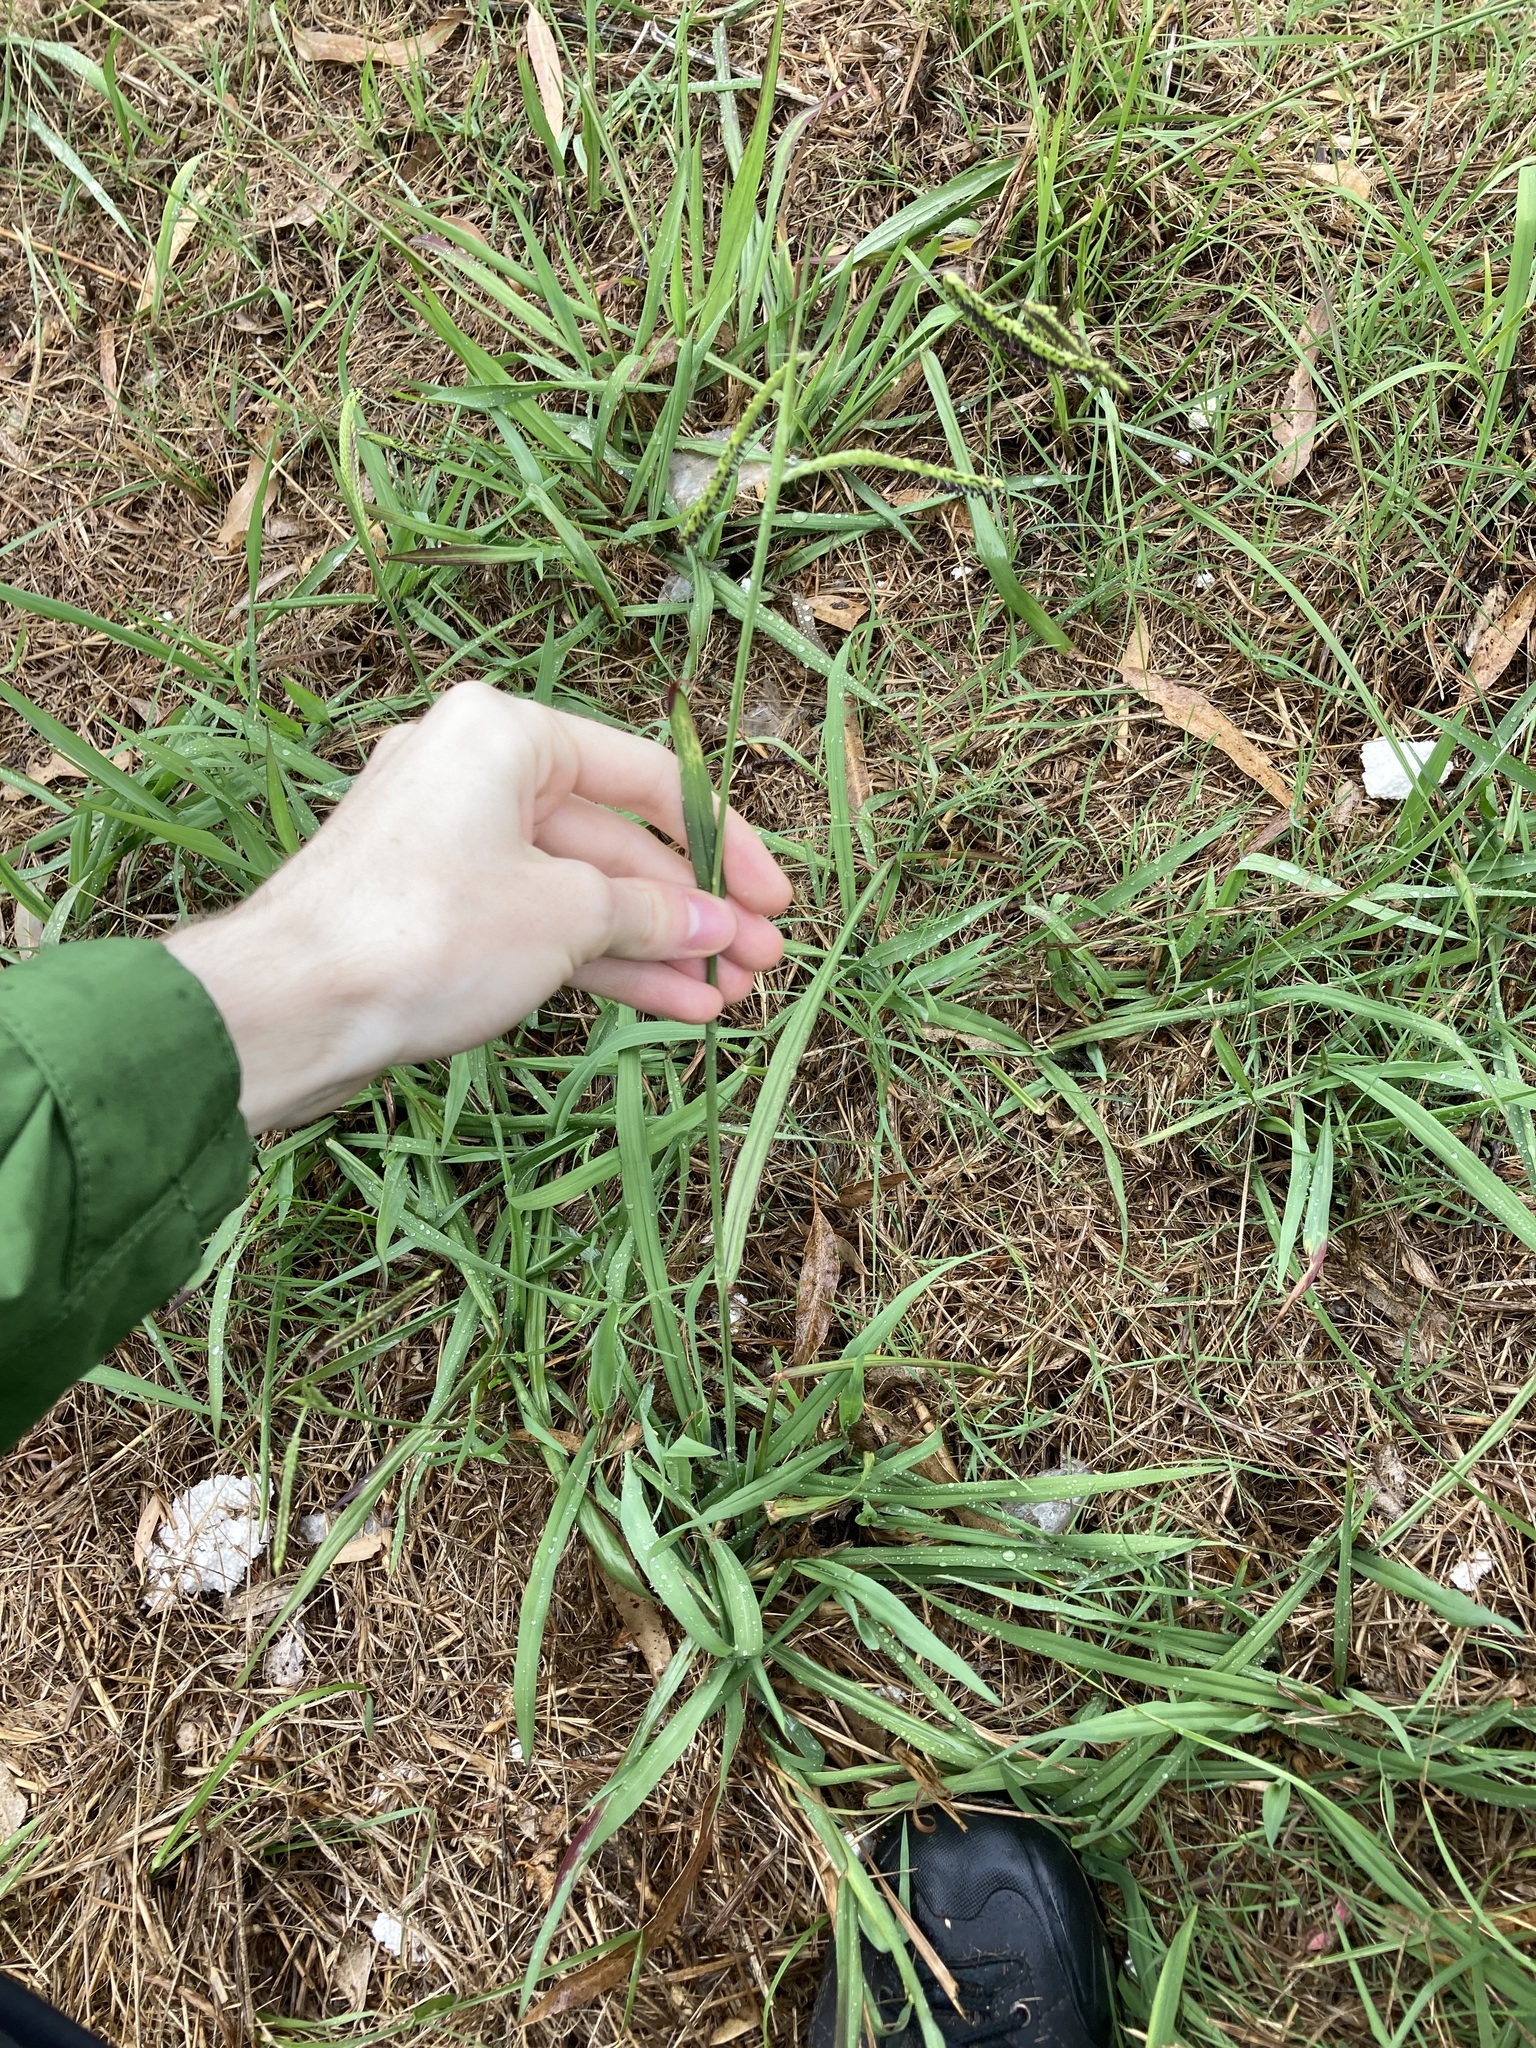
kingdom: Plantae
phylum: Tracheophyta
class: Liliopsida
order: Poales
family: Poaceae
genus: Paspalum
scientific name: Paspalum dilatatum
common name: Dallisgrass
